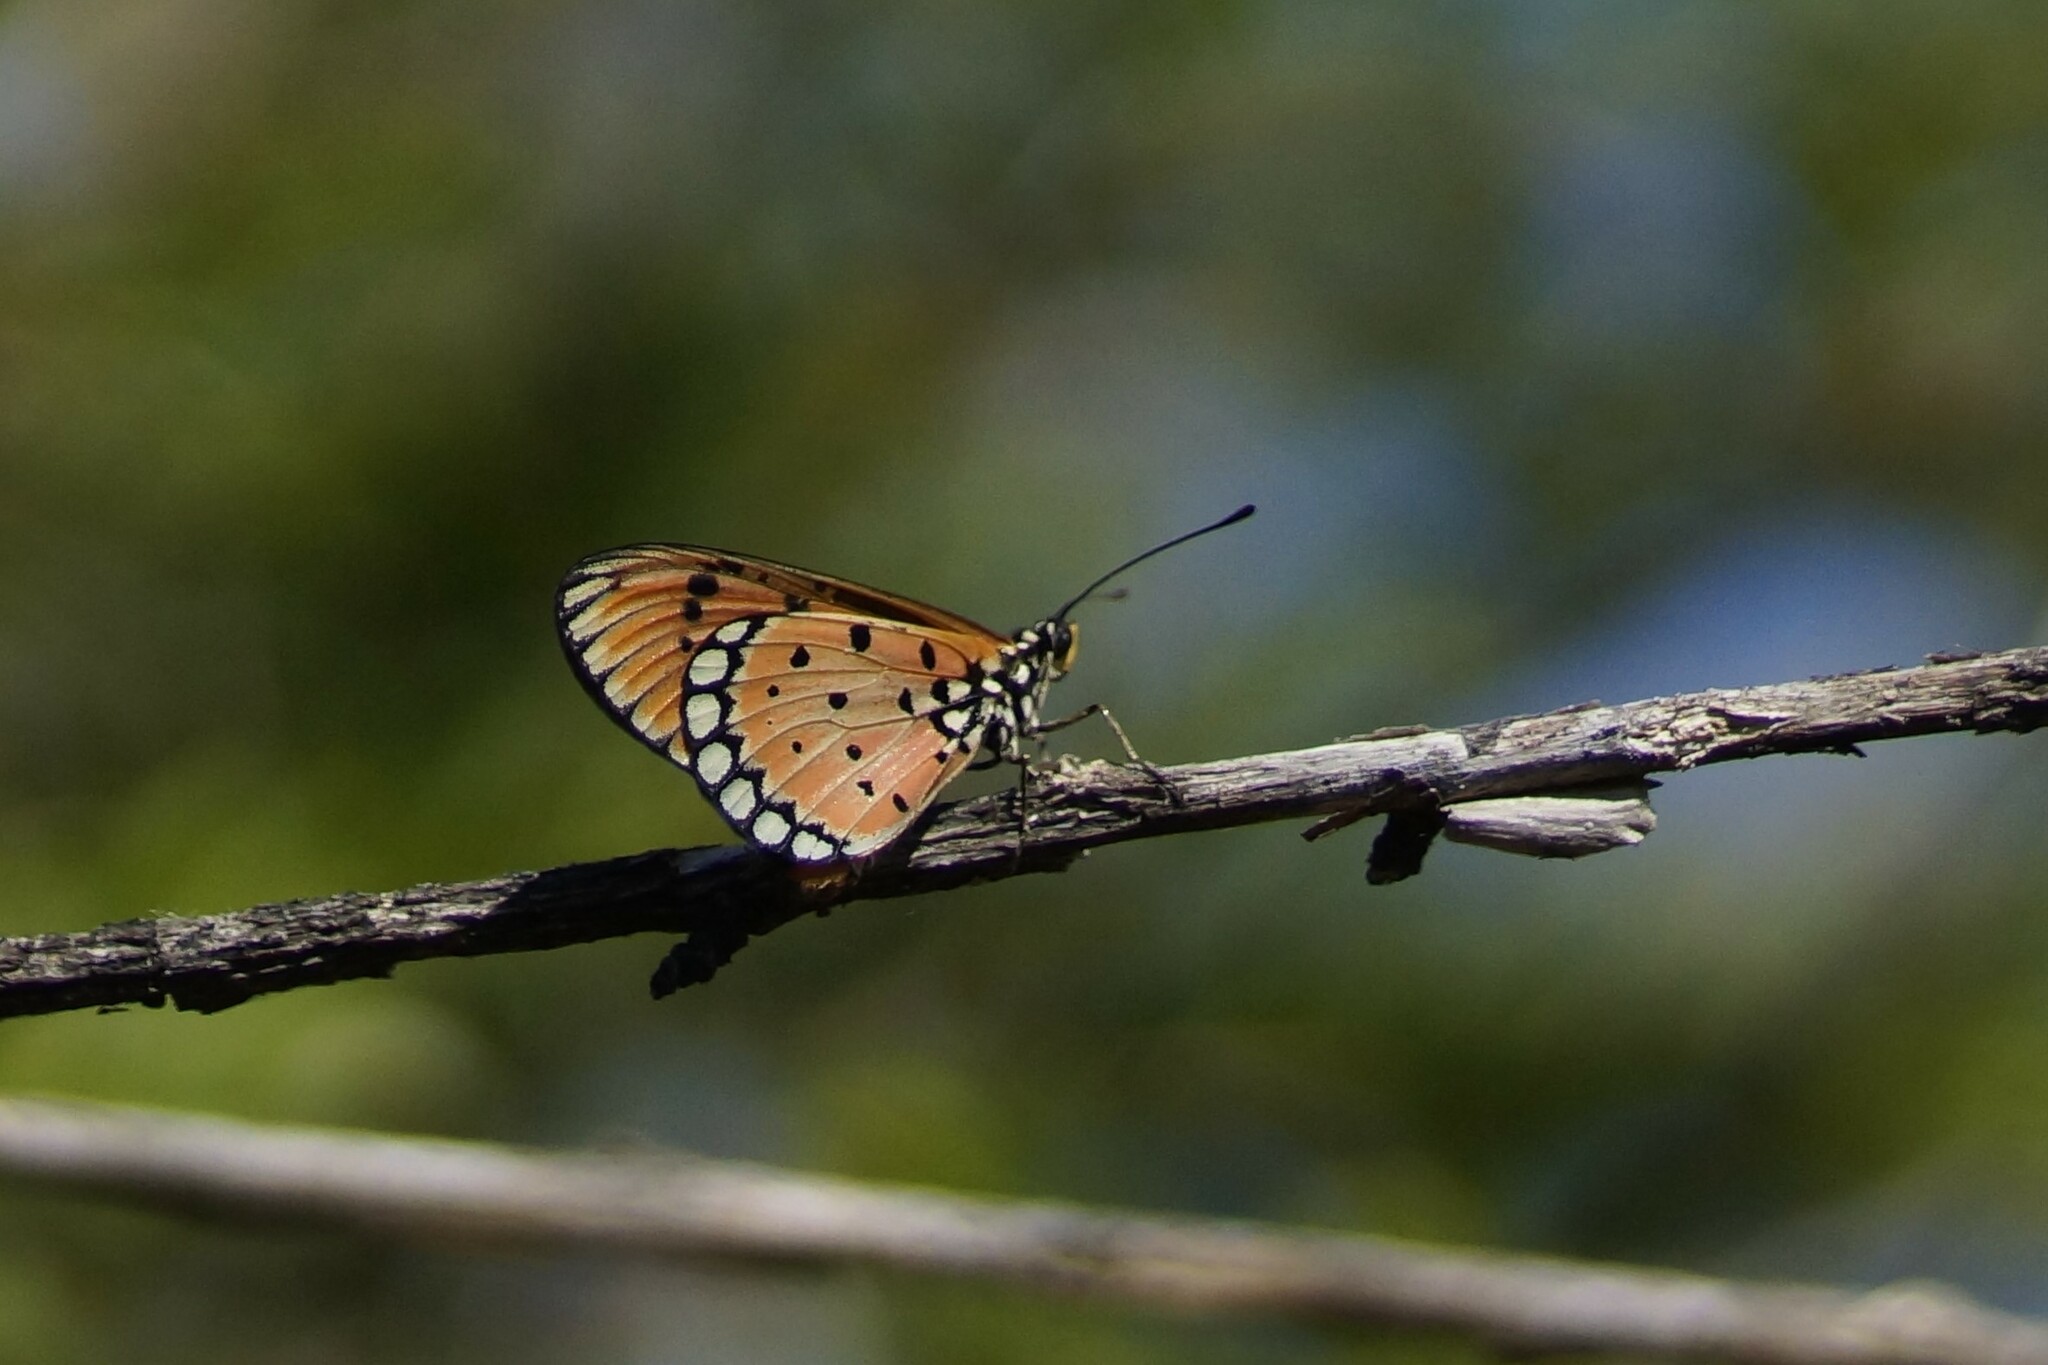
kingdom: Animalia
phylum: Arthropoda
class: Insecta
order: Lepidoptera
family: Nymphalidae
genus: Acraea
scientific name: Acraea terpsicore
